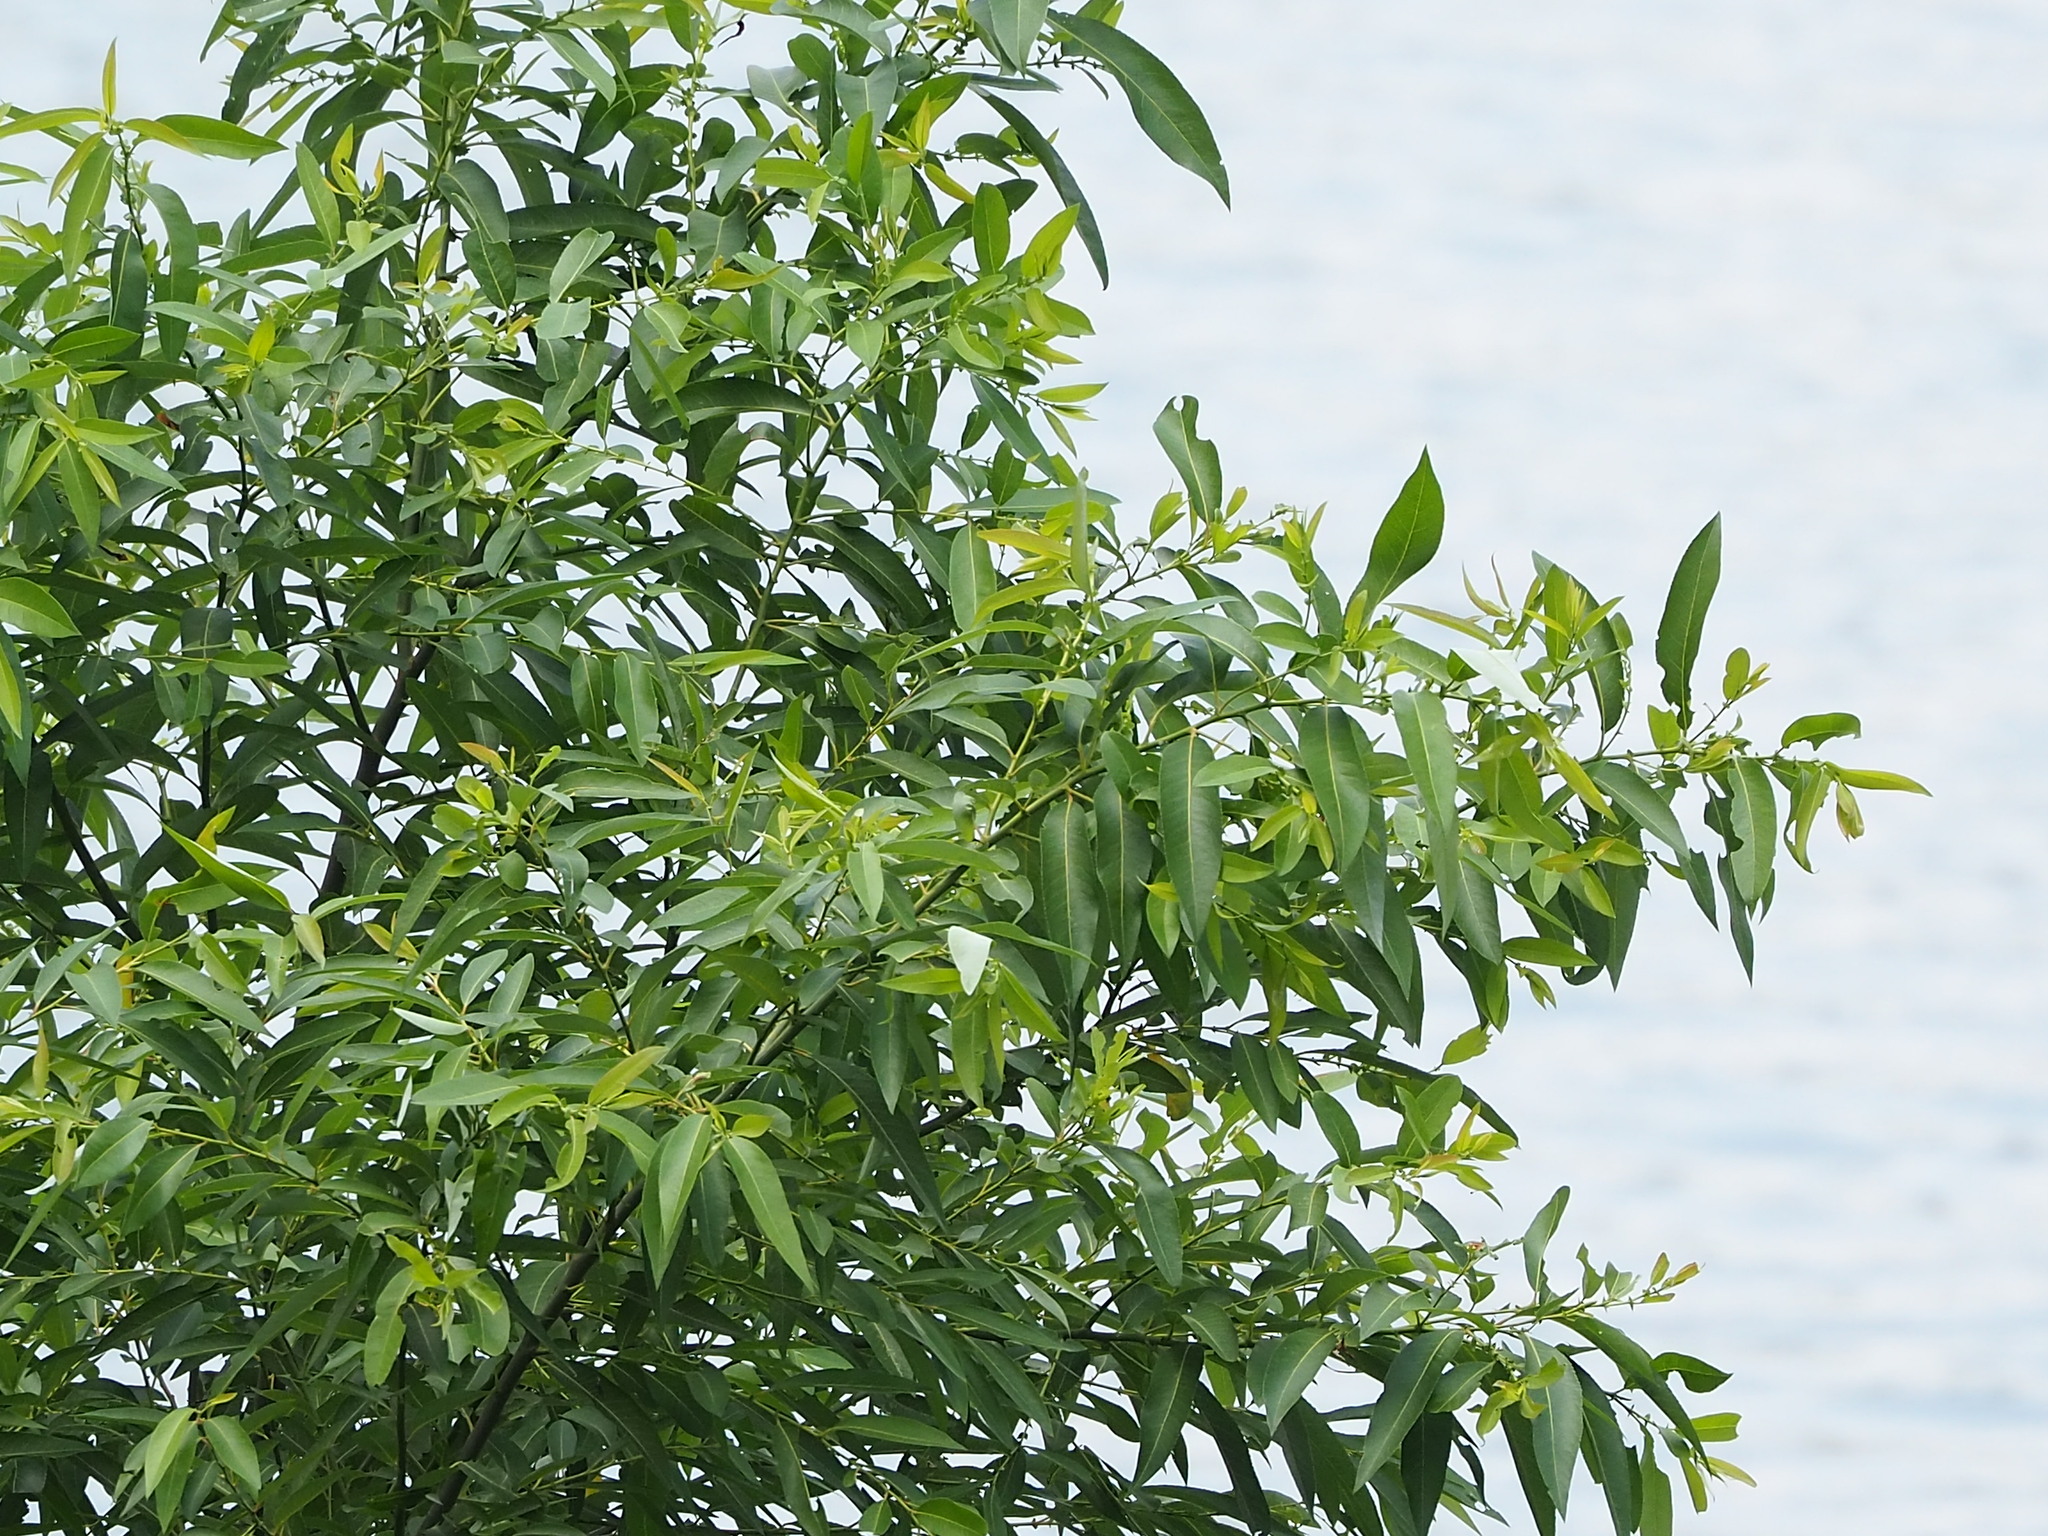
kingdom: Plantae
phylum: Tracheophyta
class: Magnoliopsida
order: Malpighiales
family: Salicaceae
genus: Salix
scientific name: Salix mesnyi
